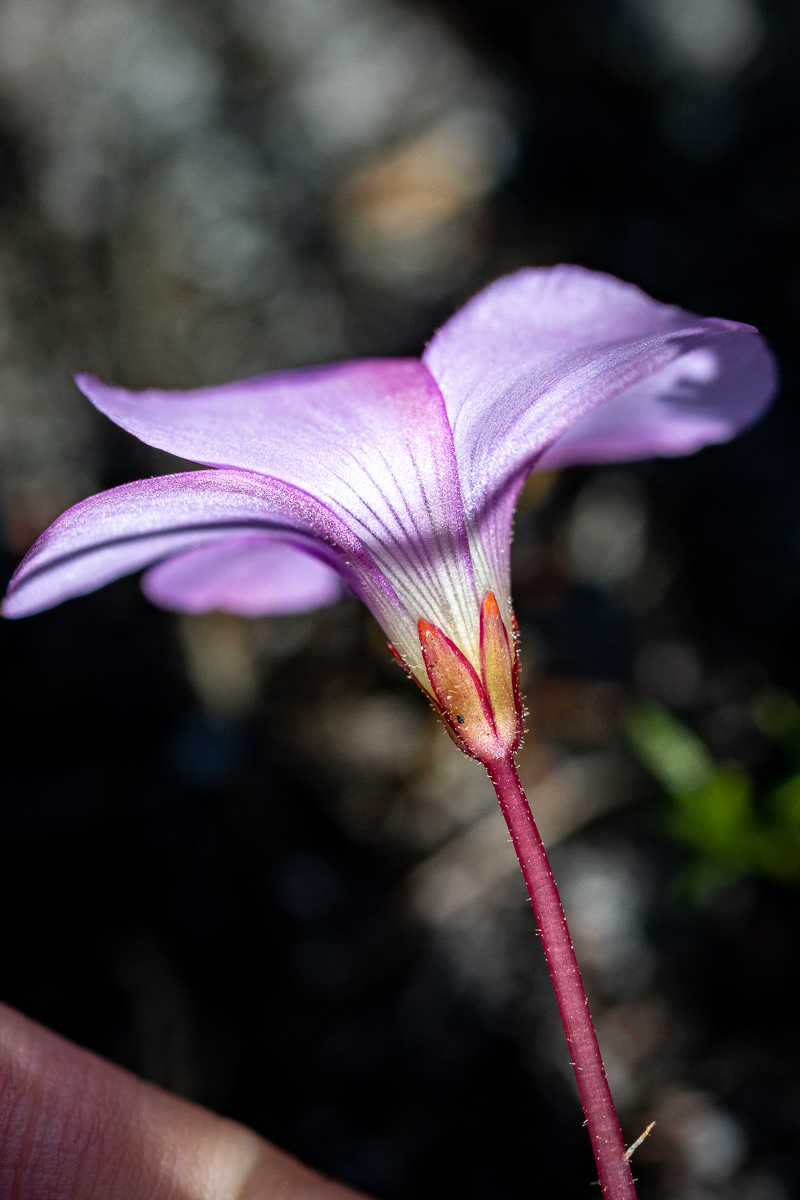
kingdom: Plantae
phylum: Tracheophyta
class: Magnoliopsida
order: Oxalidales
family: Oxalidaceae
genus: Oxalis
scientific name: Oxalis commutata
